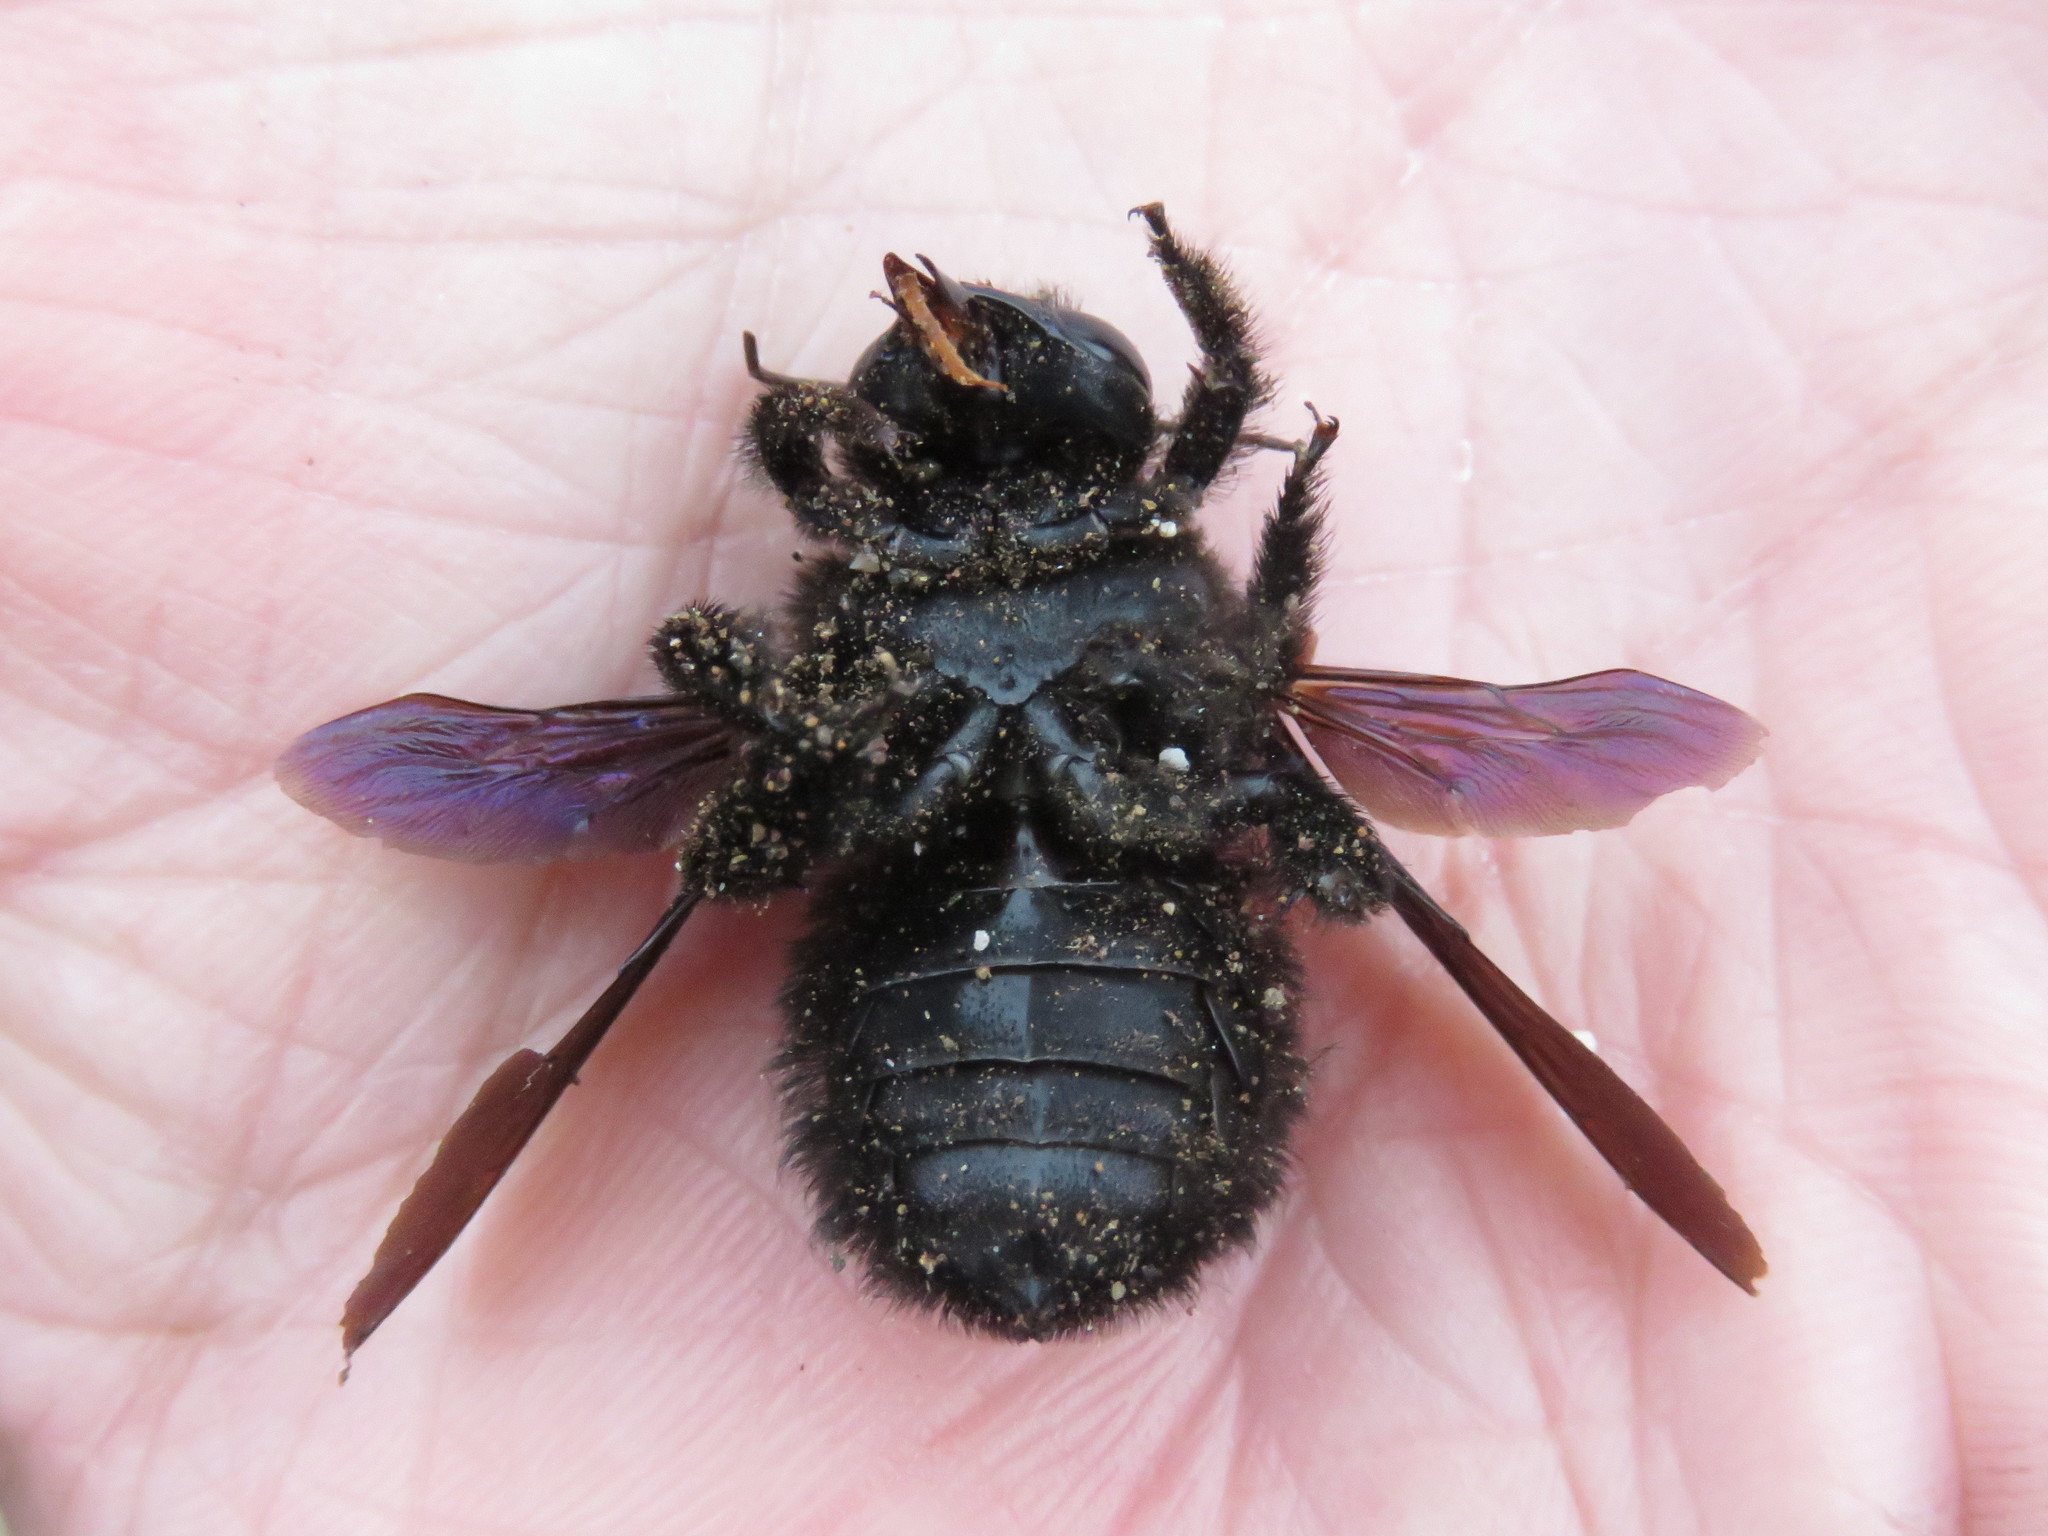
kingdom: Animalia
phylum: Arthropoda
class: Insecta
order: Hymenoptera
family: Apidae
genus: Xylocopa
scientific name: Xylocopa darwini
